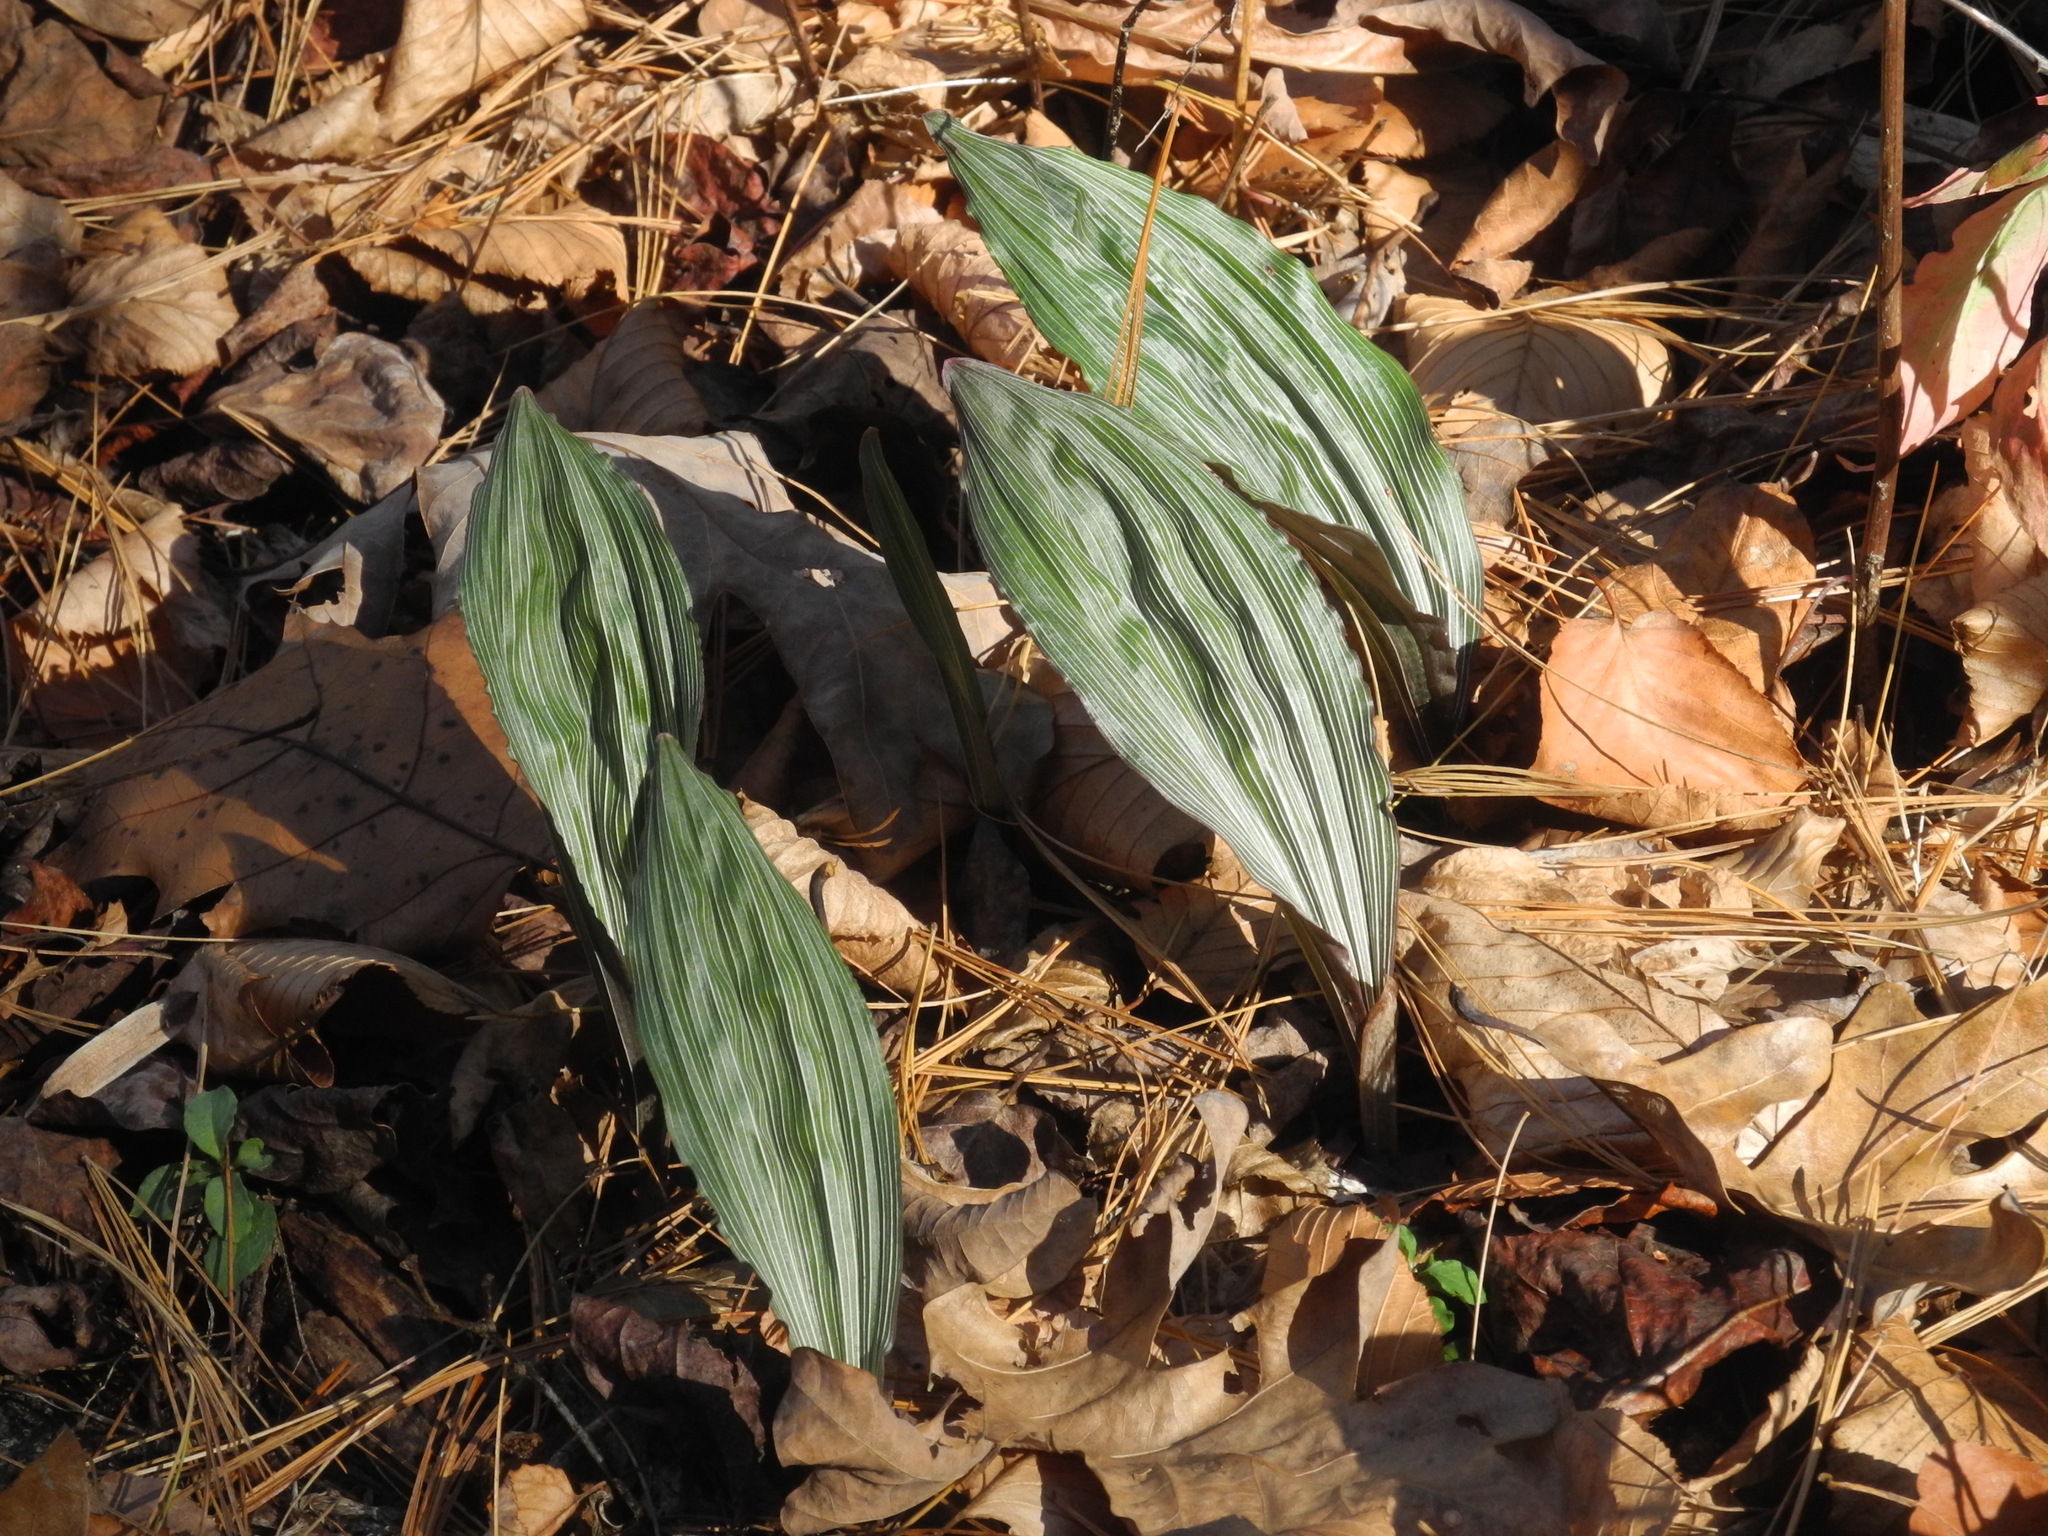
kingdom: Plantae
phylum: Tracheophyta
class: Liliopsida
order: Asparagales
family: Orchidaceae
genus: Aplectrum
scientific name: Aplectrum hyemale
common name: Adam-and-eve
